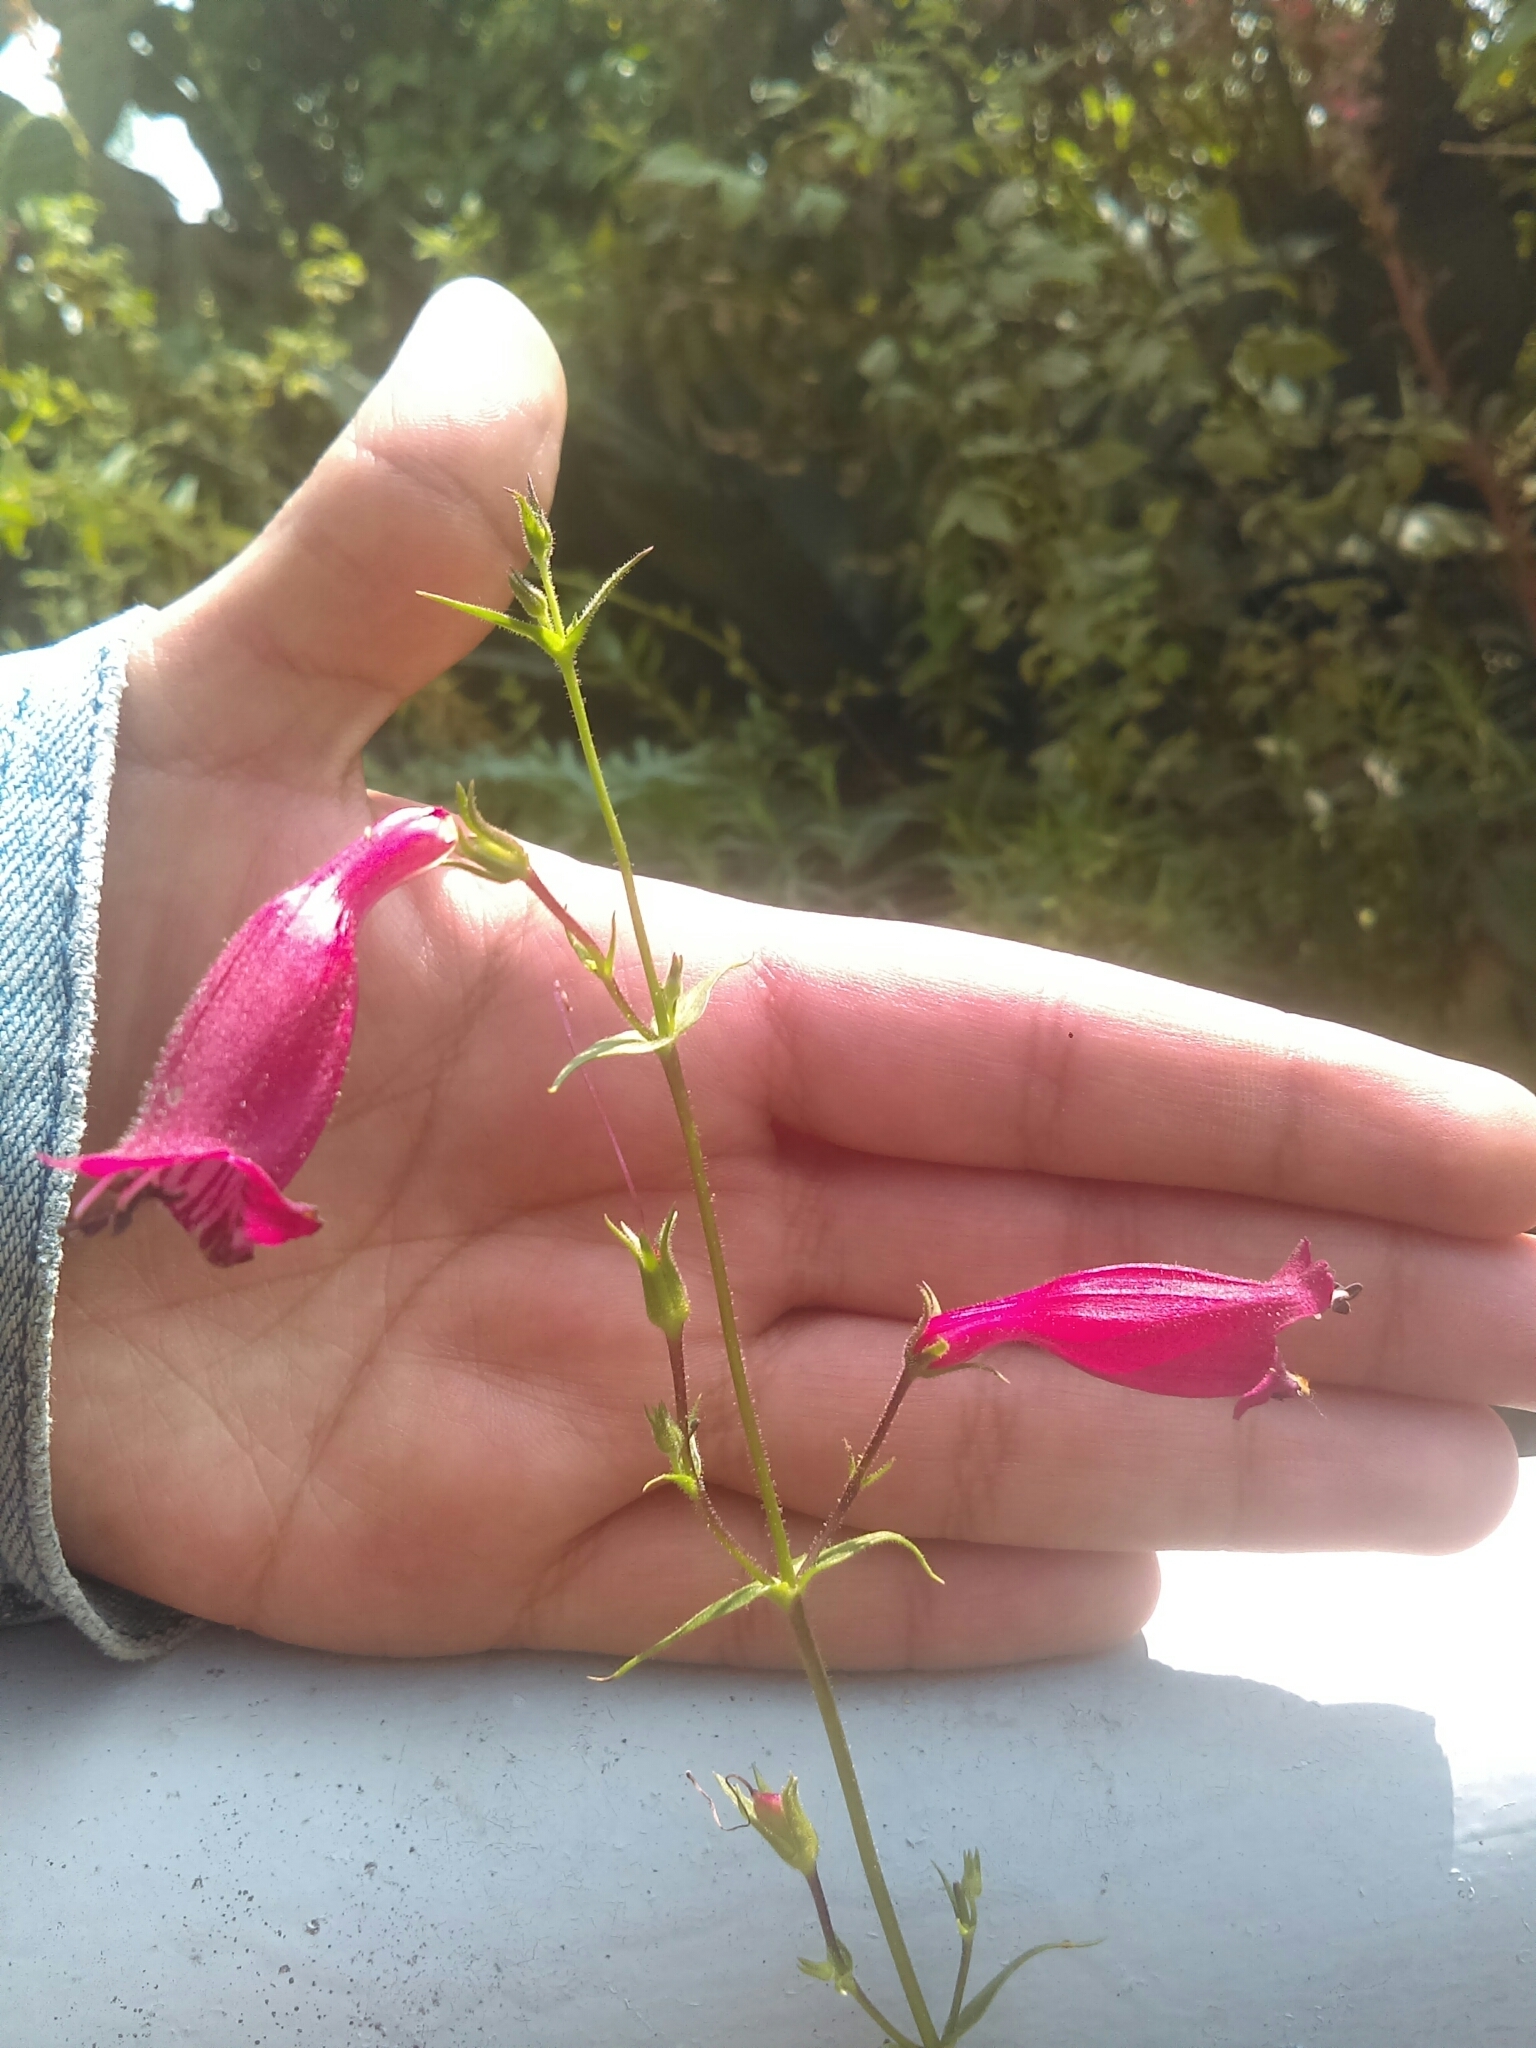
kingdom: Plantae
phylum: Tracheophyta
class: Magnoliopsida
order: Lamiales
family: Plantaginaceae
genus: Penstemon
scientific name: Penstemon roseus
